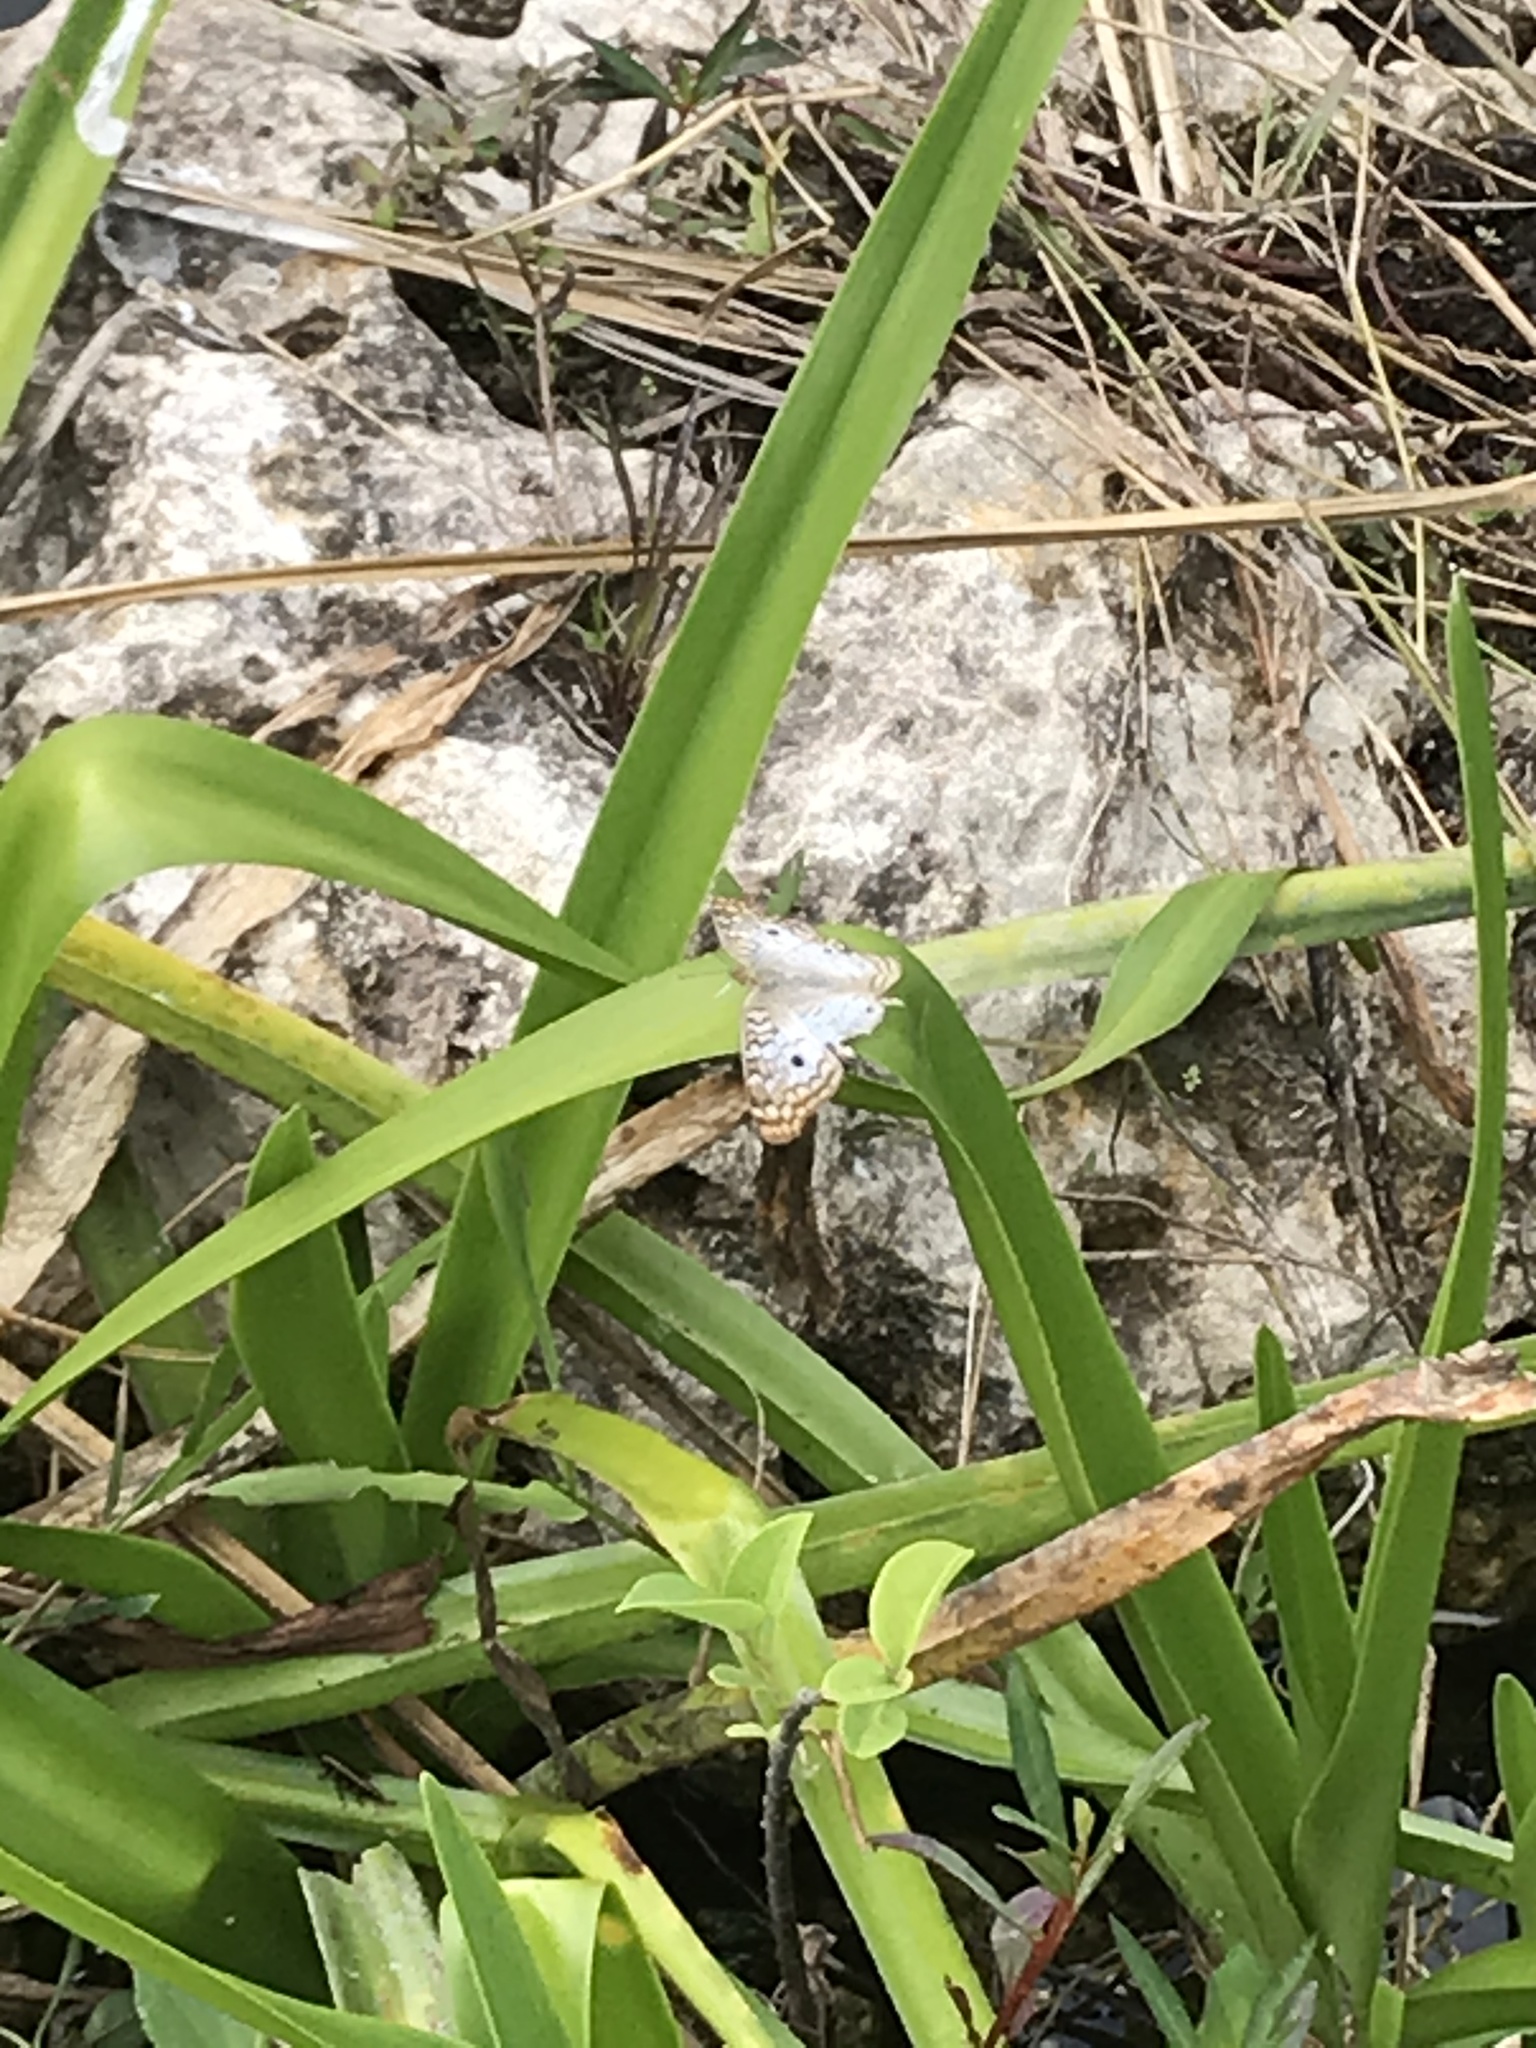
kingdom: Animalia
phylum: Arthropoda
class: Insecta
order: Lepidoptera
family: Nymphalidae
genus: Anartia
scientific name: Anartia jatrophae
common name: White peacock
